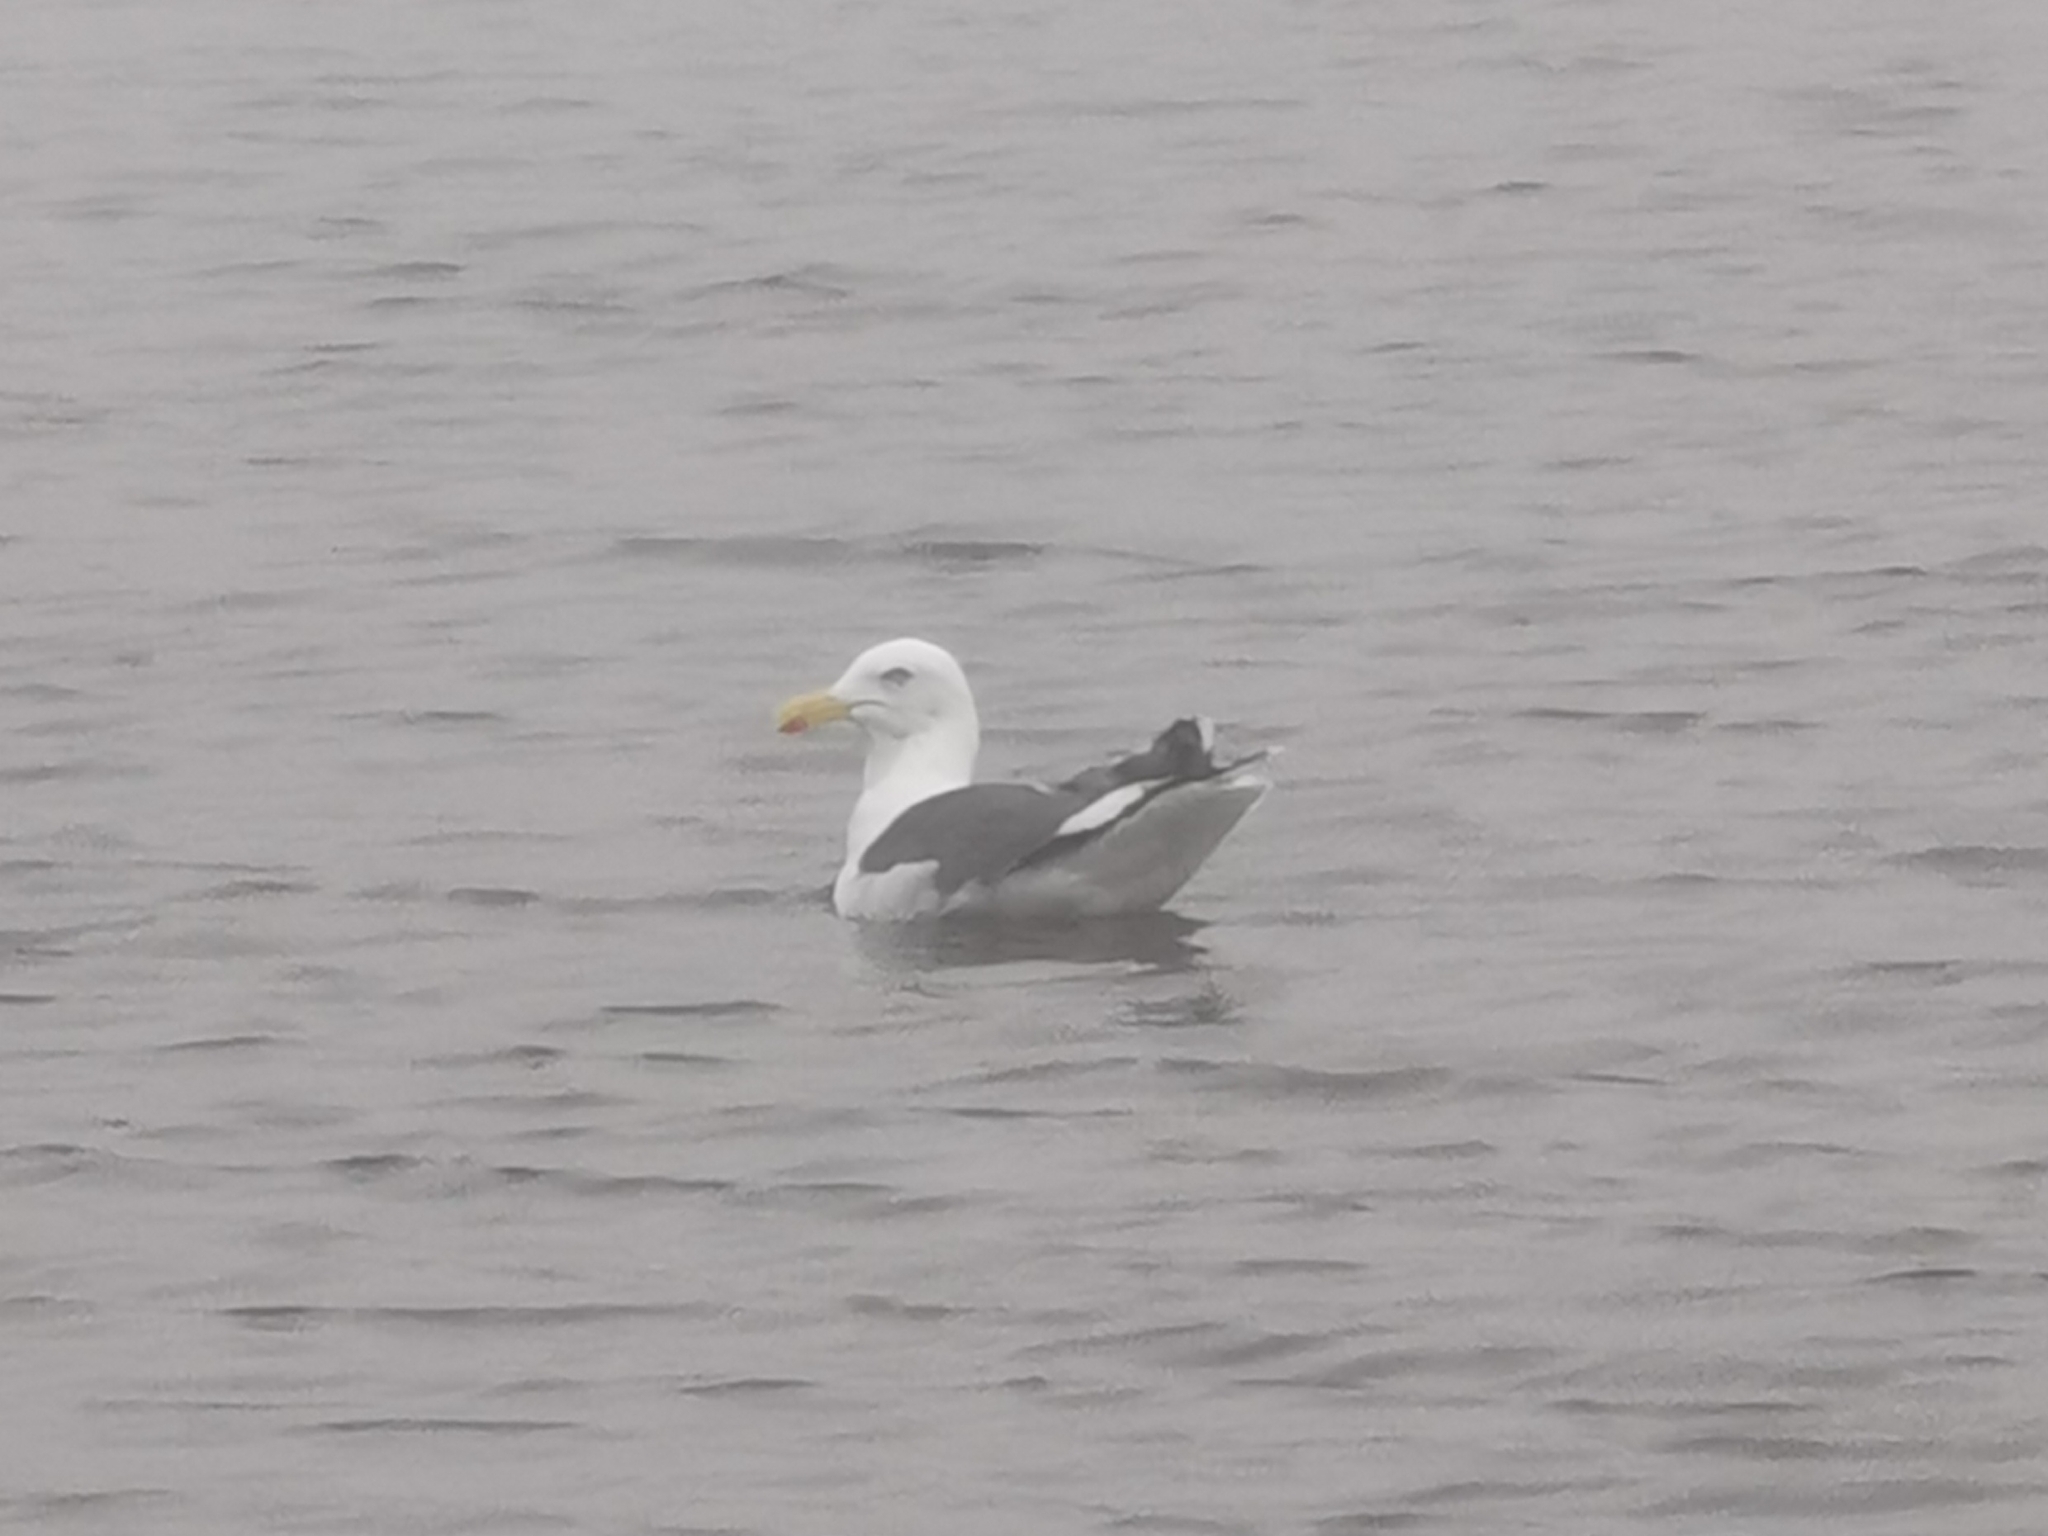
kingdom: Animalia
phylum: Chordata
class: Aves
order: Charadriiformes
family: Laridae
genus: Larus
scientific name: Larus schistisagus
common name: Slaty-backed gull
